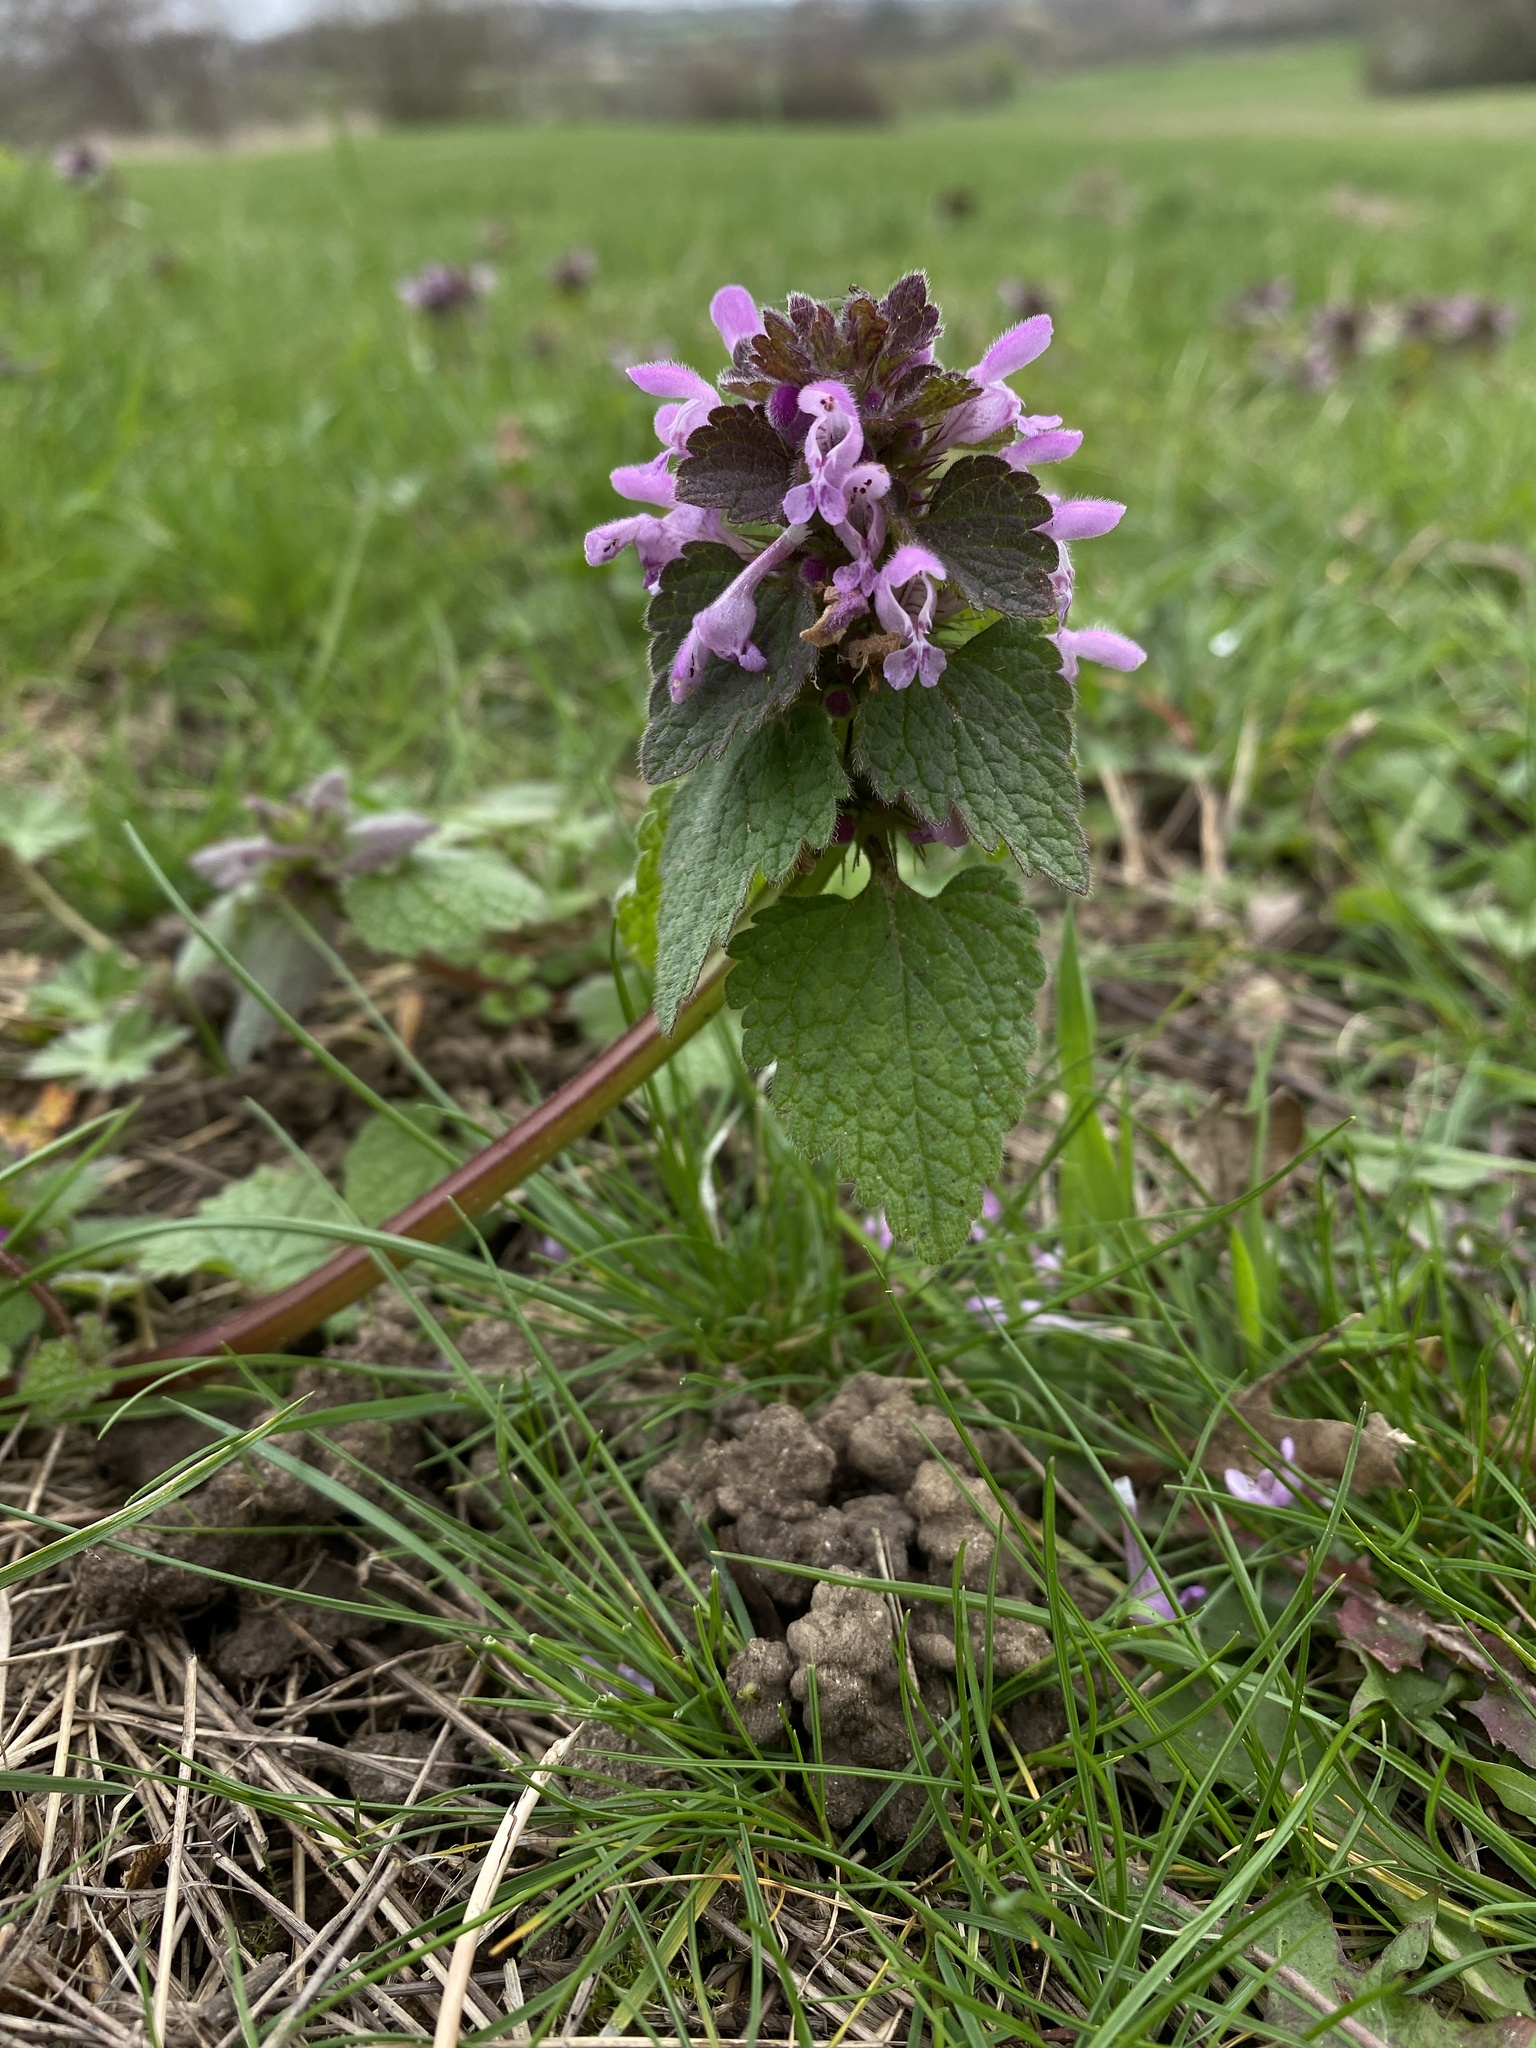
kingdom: Plantae
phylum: Tracheophyta
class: Magnoliopsida
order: Lamiales
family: Lamiaceae
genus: Lamium
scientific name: Lamium purpureum
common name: Red dead-nettle
